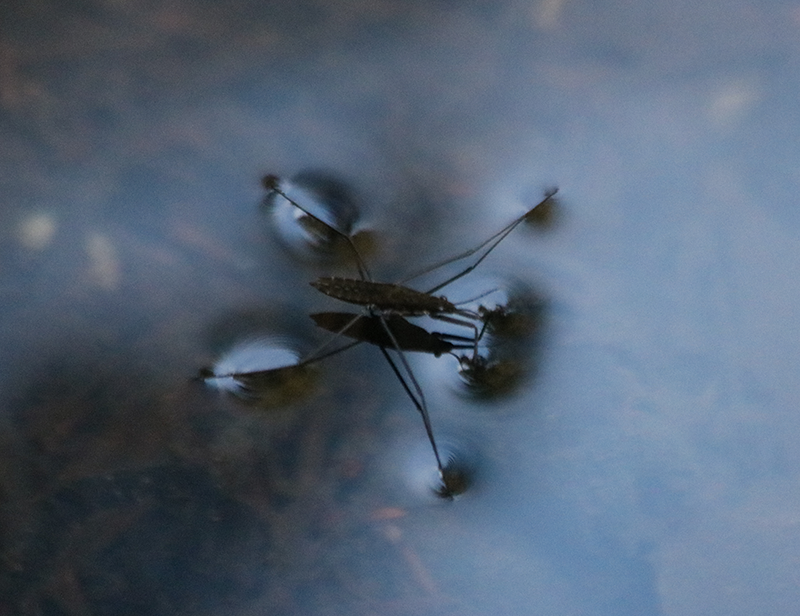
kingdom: Animalia
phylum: Arthropoda
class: Insecta
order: Hemiptera
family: Gerridae
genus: Aquarius
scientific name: Aquarius remigis
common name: Common water strider
